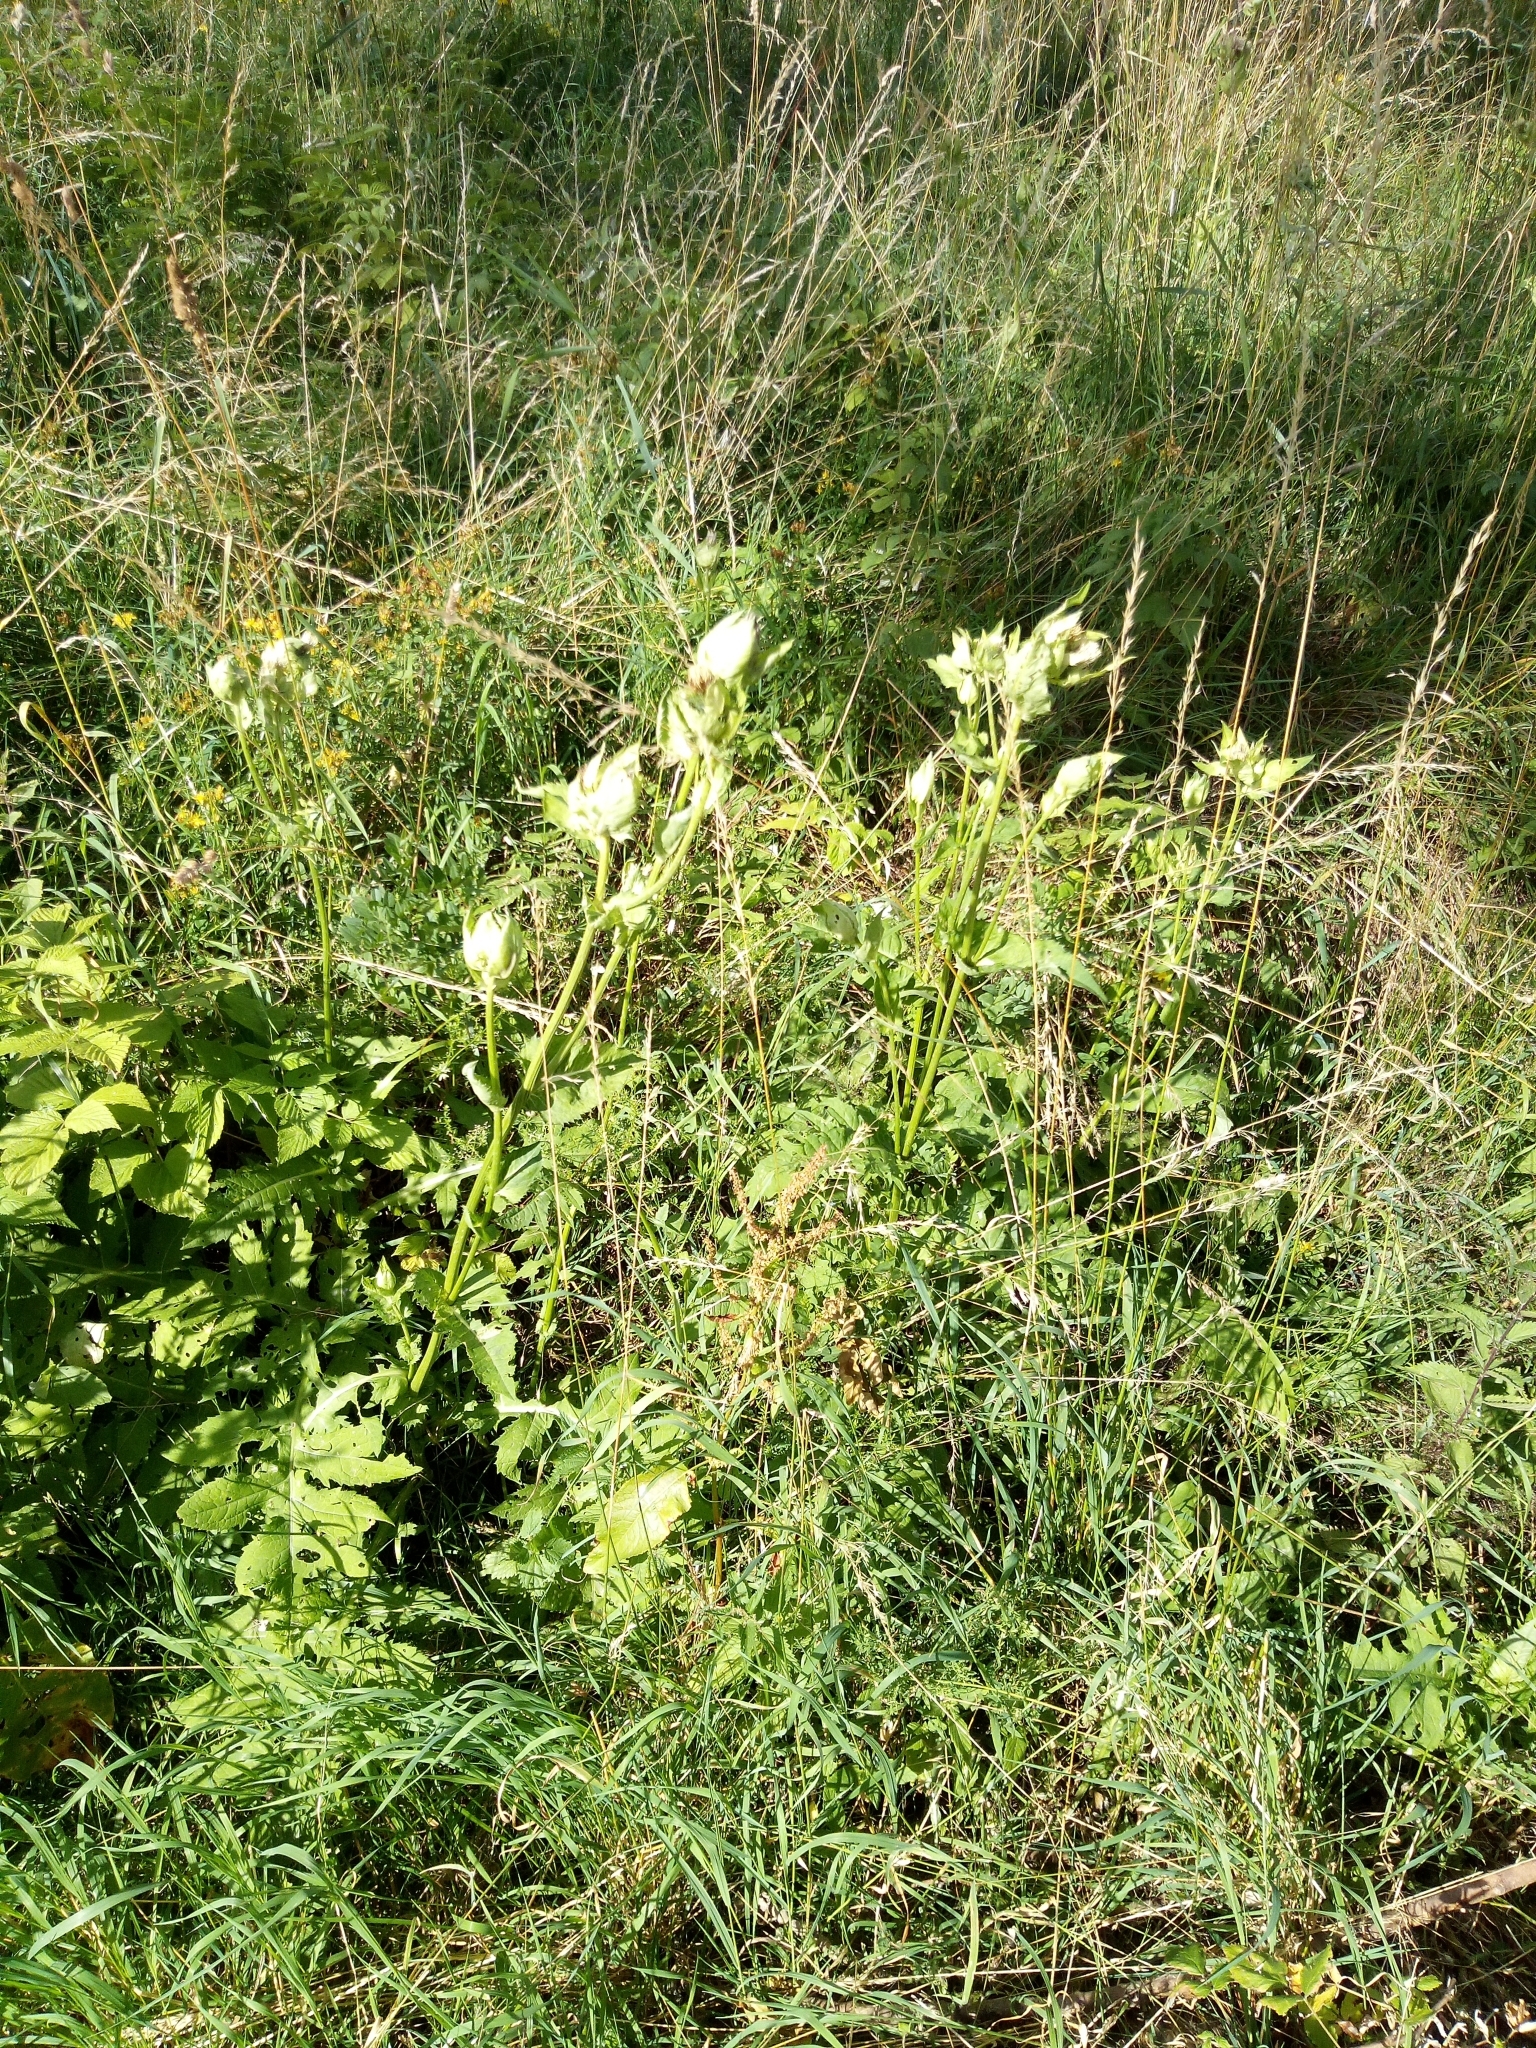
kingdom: Plantae
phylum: Tracheophyta
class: Magnoliopsida
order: Asterales
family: Asteraceae
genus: Cirsium
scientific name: Cirsium oleraceum
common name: Cabbage thistle
